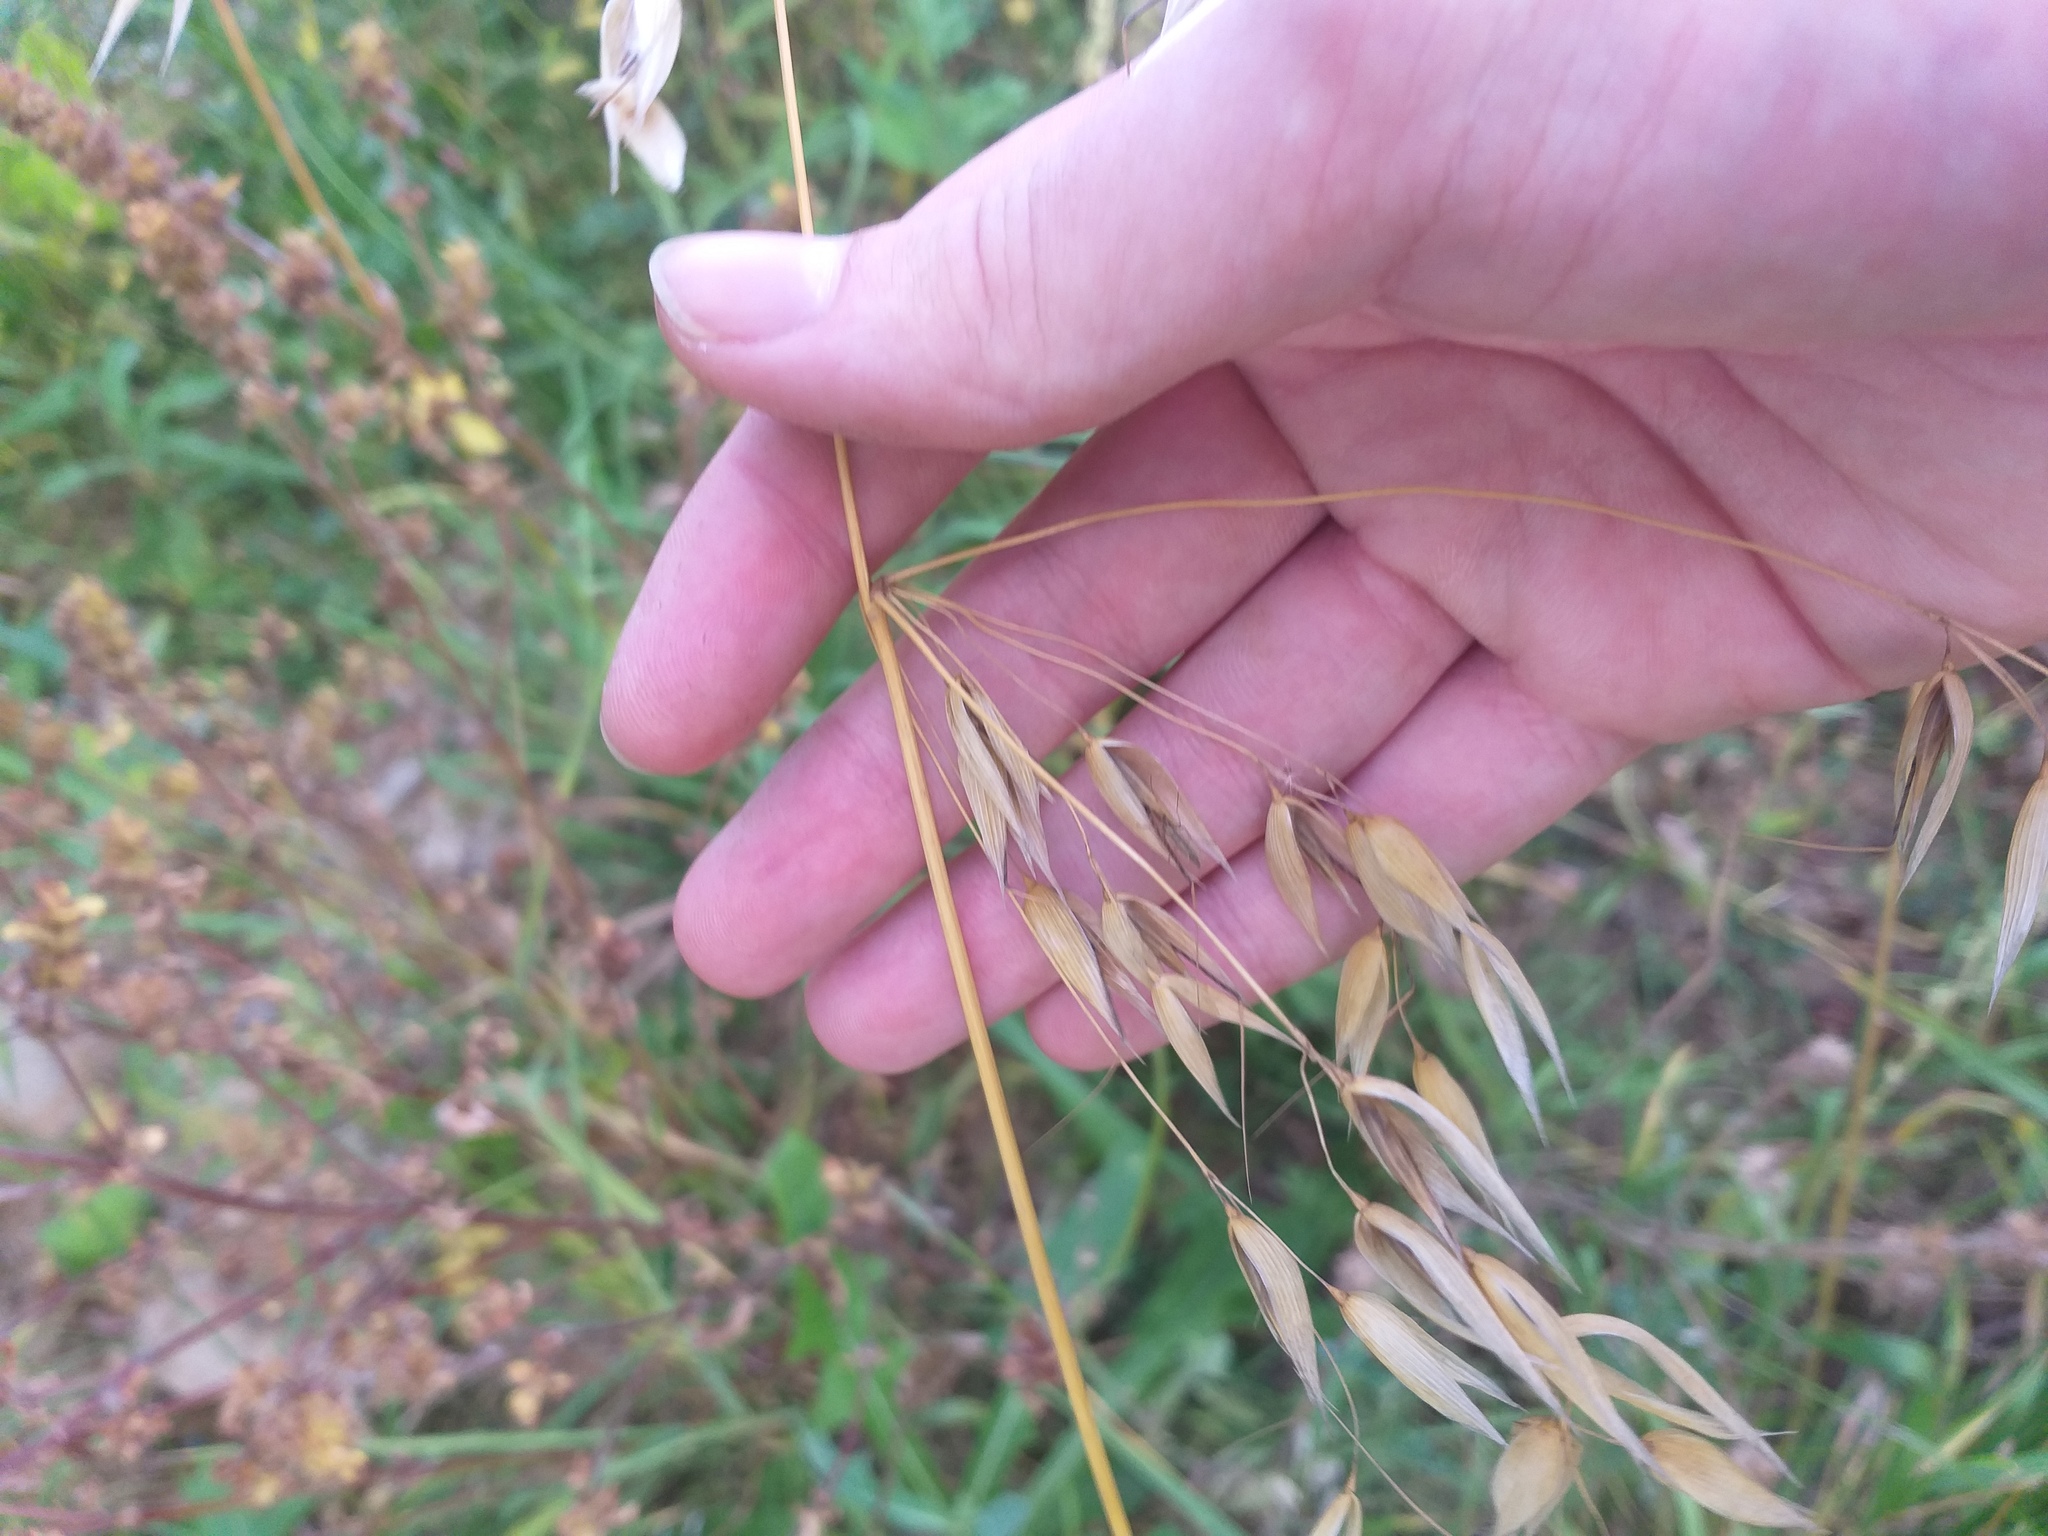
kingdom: Plantae
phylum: Tracheophyta
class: Liliopsida
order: Poales
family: Poaceae
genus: Avena
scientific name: Avena fatua
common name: Wild oat
